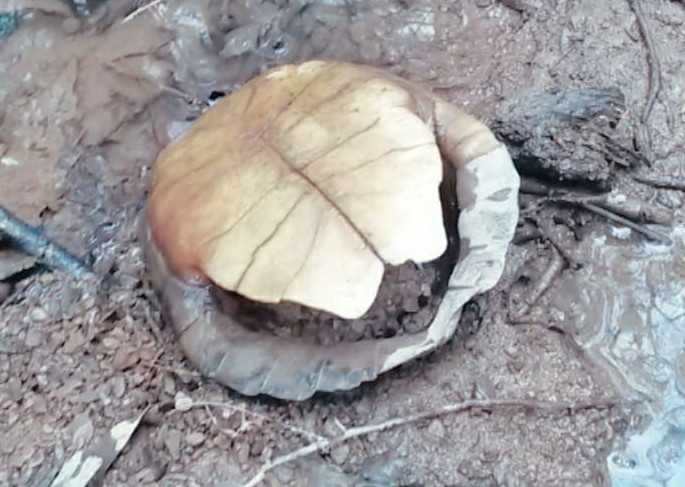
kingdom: Animalia
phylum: Chordata
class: Testudines
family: Emydidae
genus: Glyptemys
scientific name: Glyptemys insculpta
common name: Wood turtle
